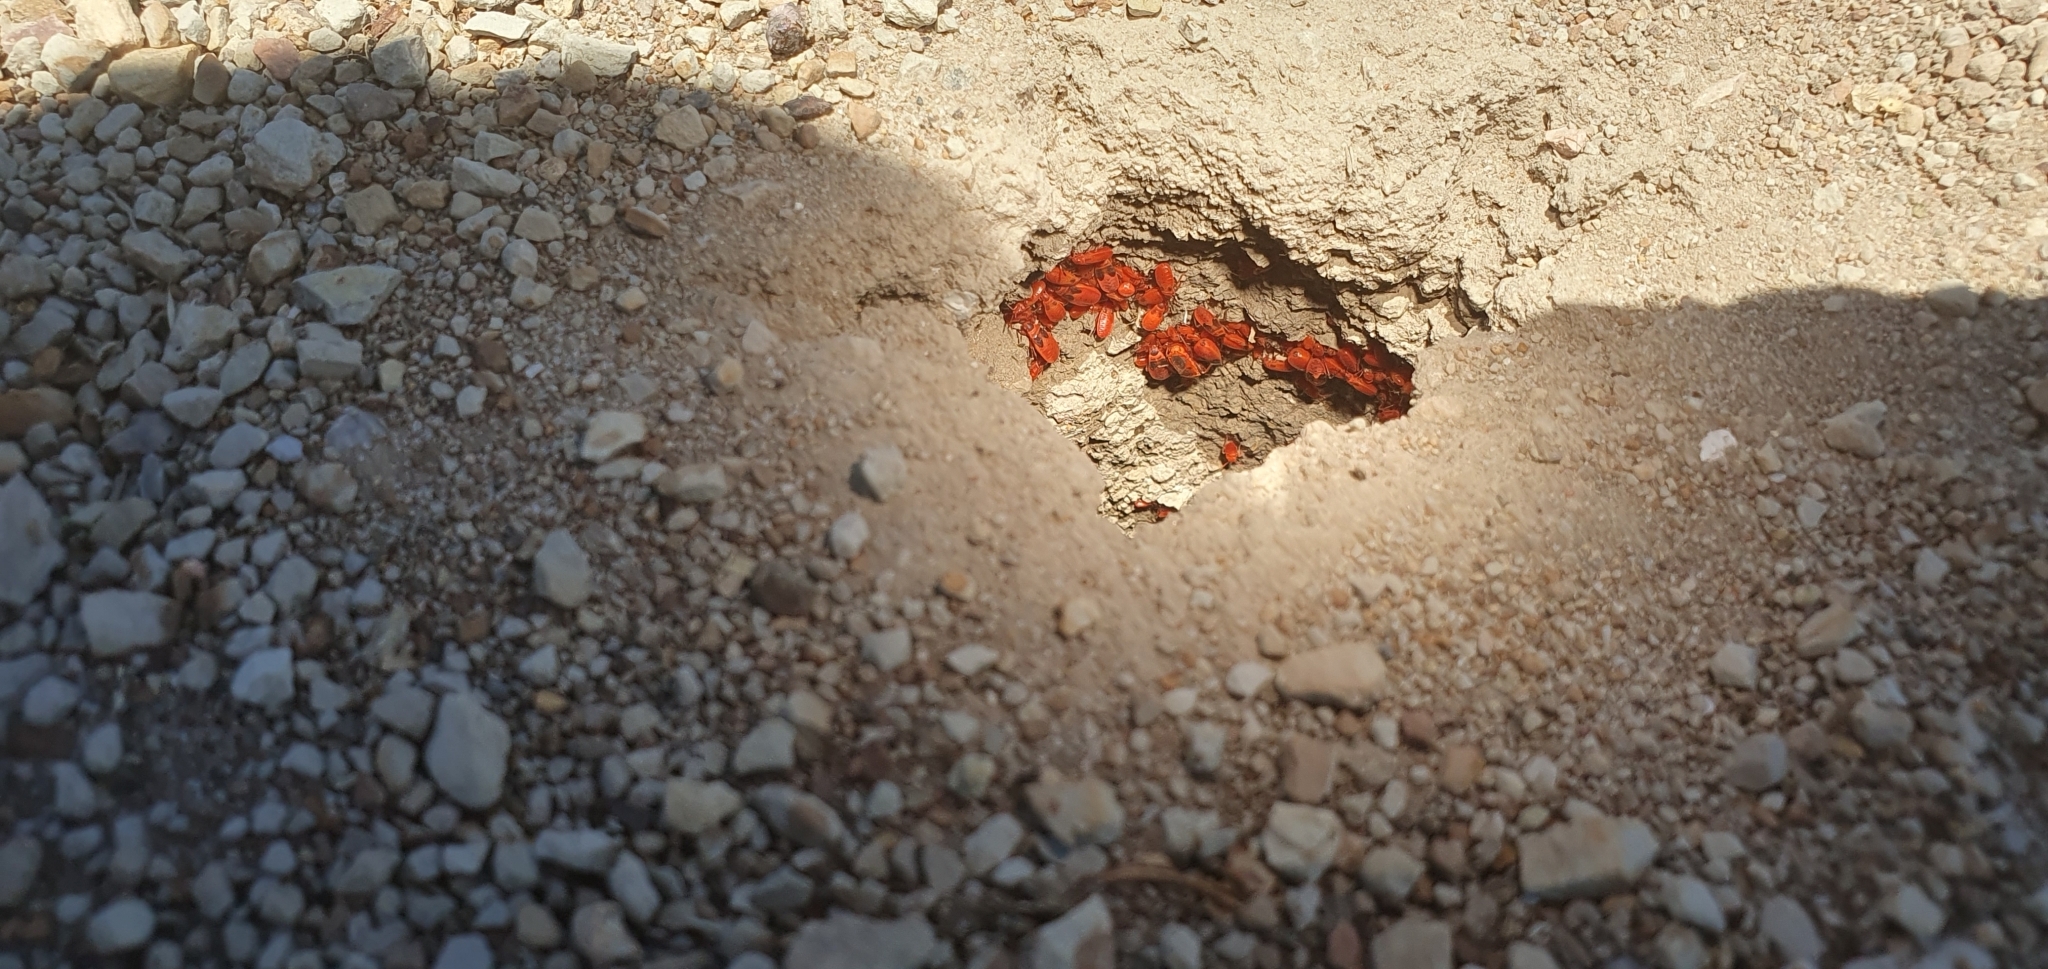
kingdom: Animalia
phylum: Arthropoda
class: Insecta
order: Hemiptera
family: Pyrrhocoridae
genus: Scantius
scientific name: Scantius aegyptius
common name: Red bug
